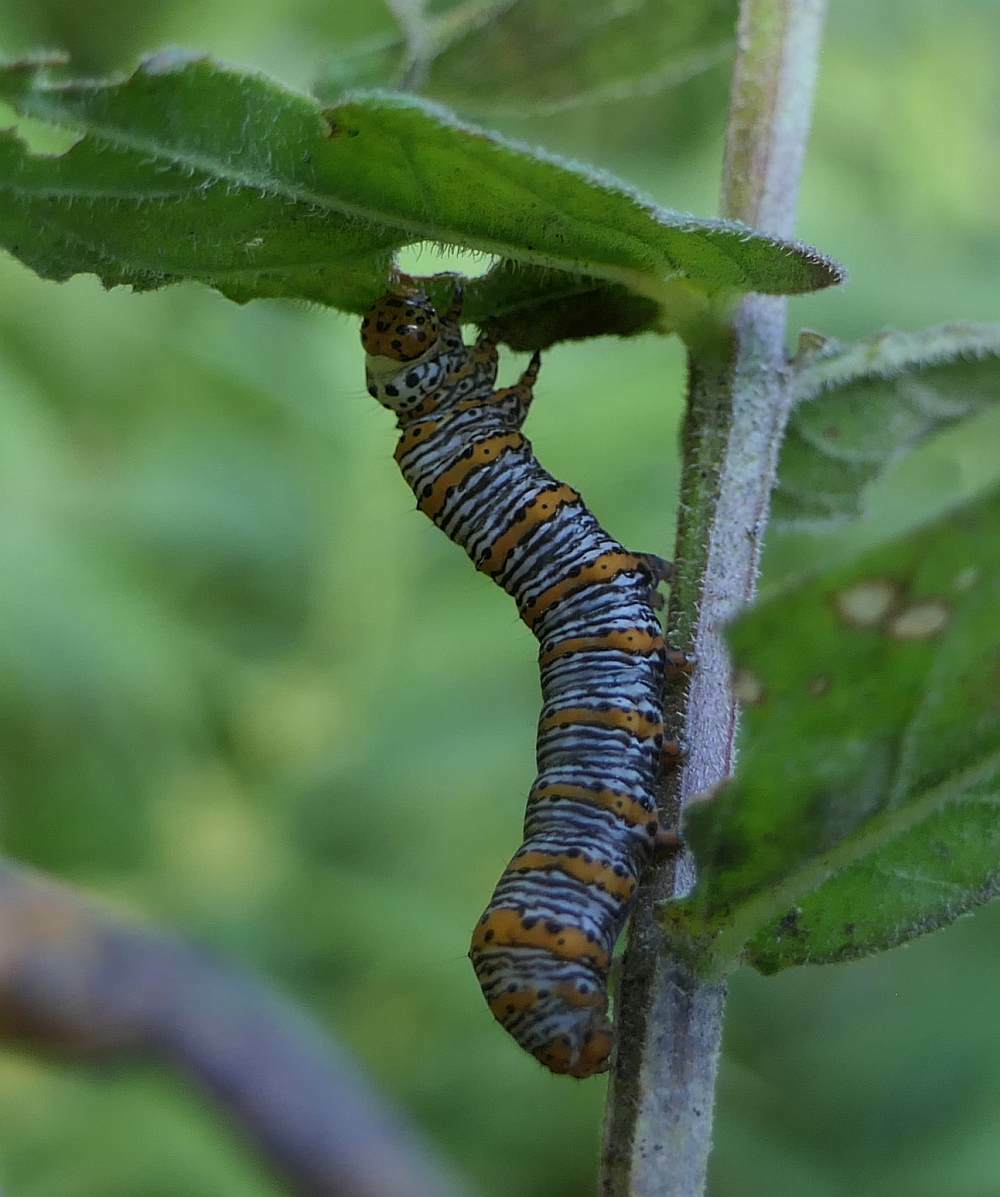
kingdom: Animalia
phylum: Arthropoda
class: Insecta
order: Lepidoptera
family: Noctuidae
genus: Eudryas
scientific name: Eudryas unio
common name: Pearly wood-nymph
